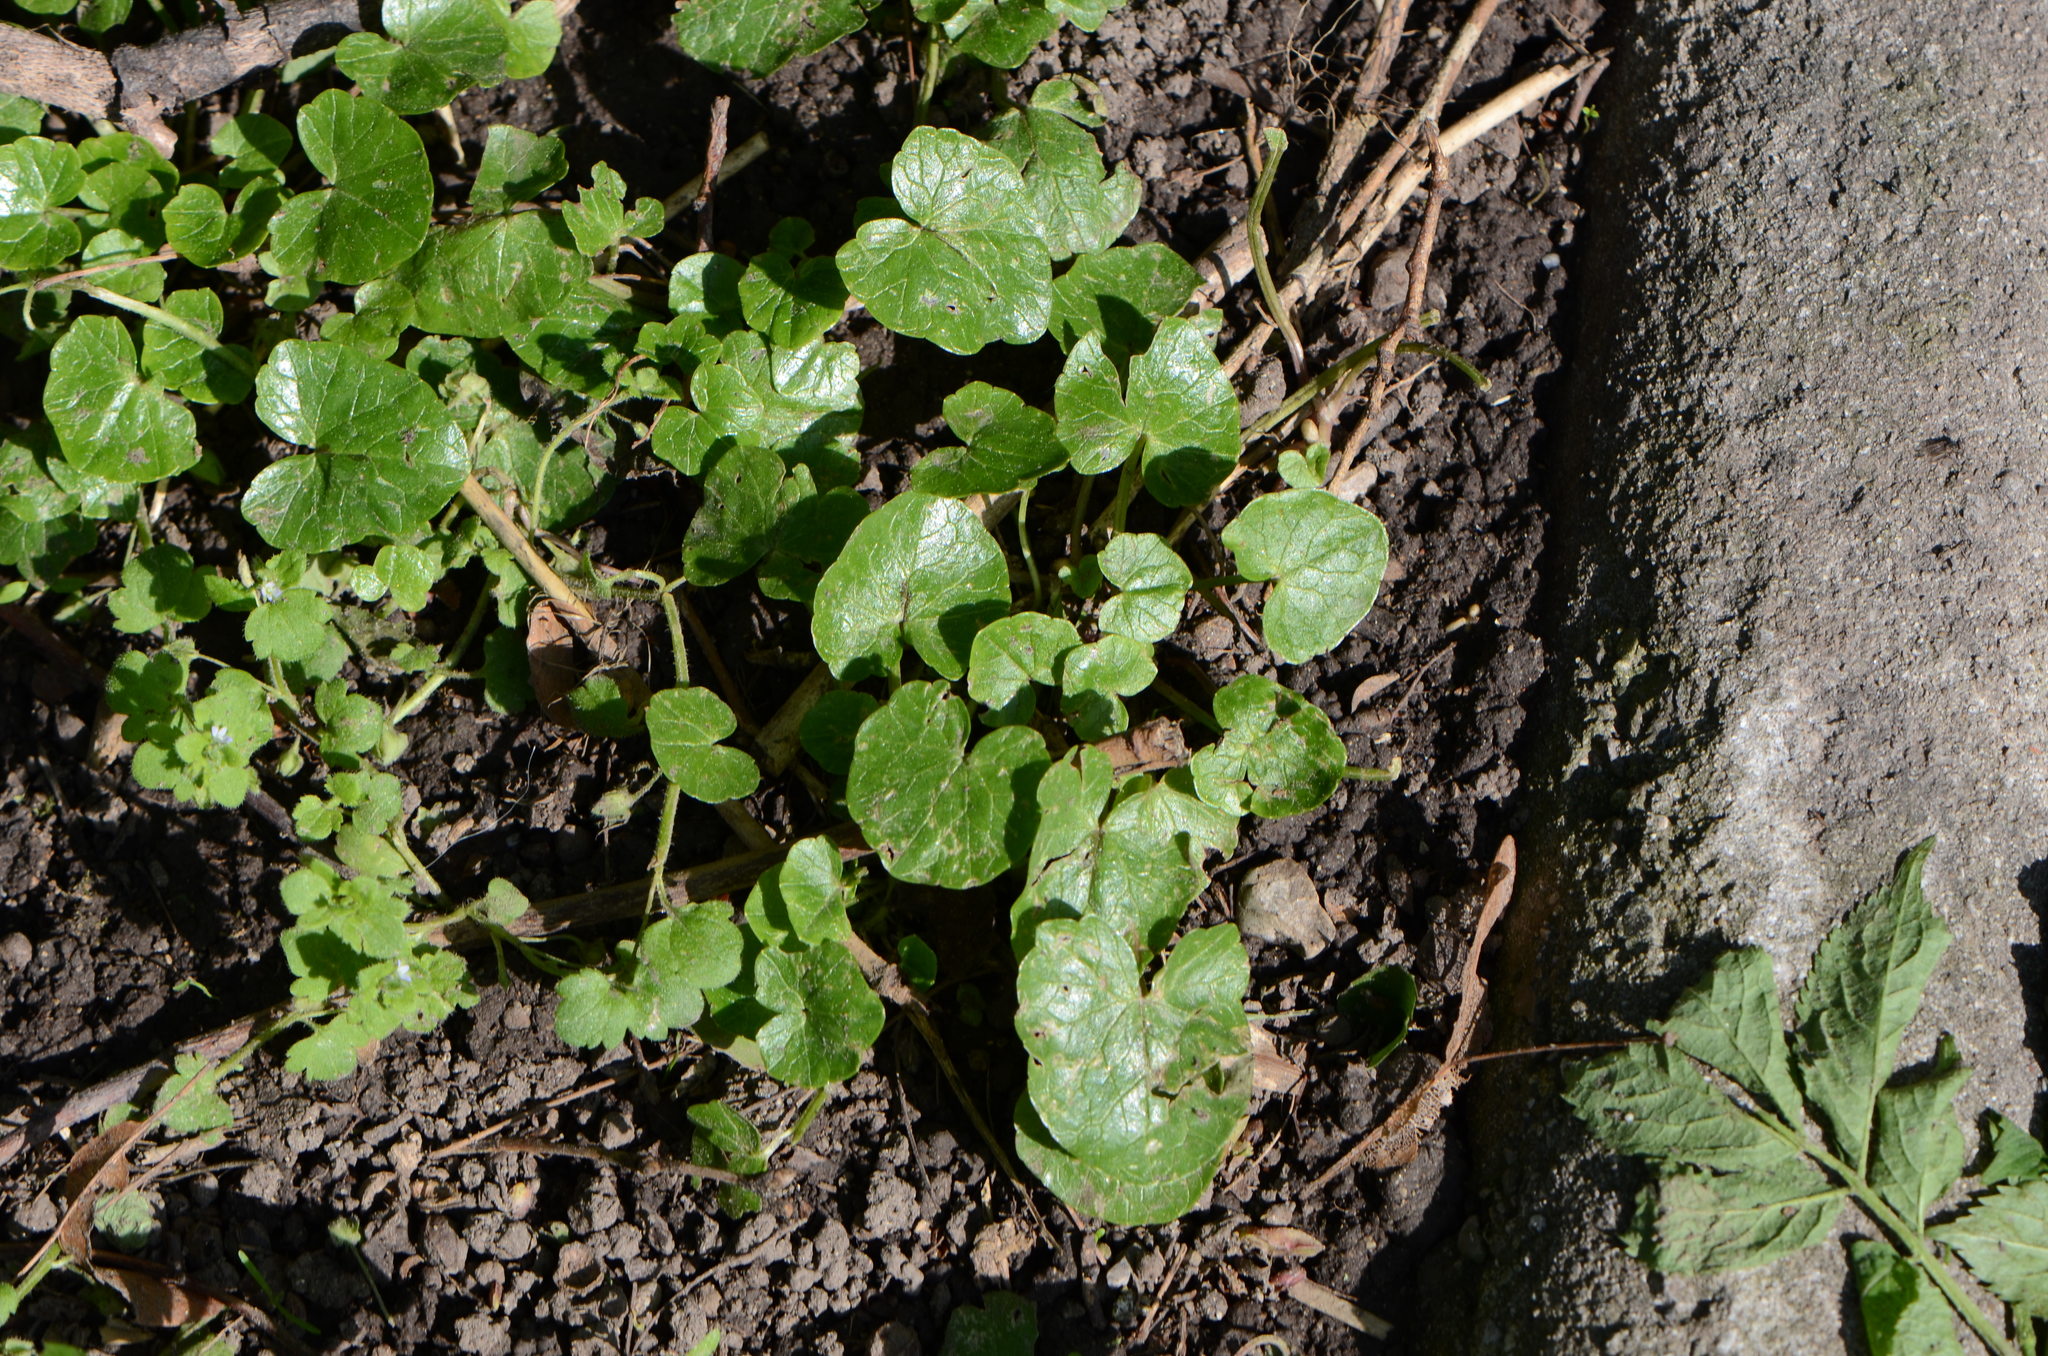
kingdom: Plantae
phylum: Tracheophyta
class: Magnoliopsida
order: Ranunculales
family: Ranunculaceae
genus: Ficaria
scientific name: Ficaria verna
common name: Lesser celandine
